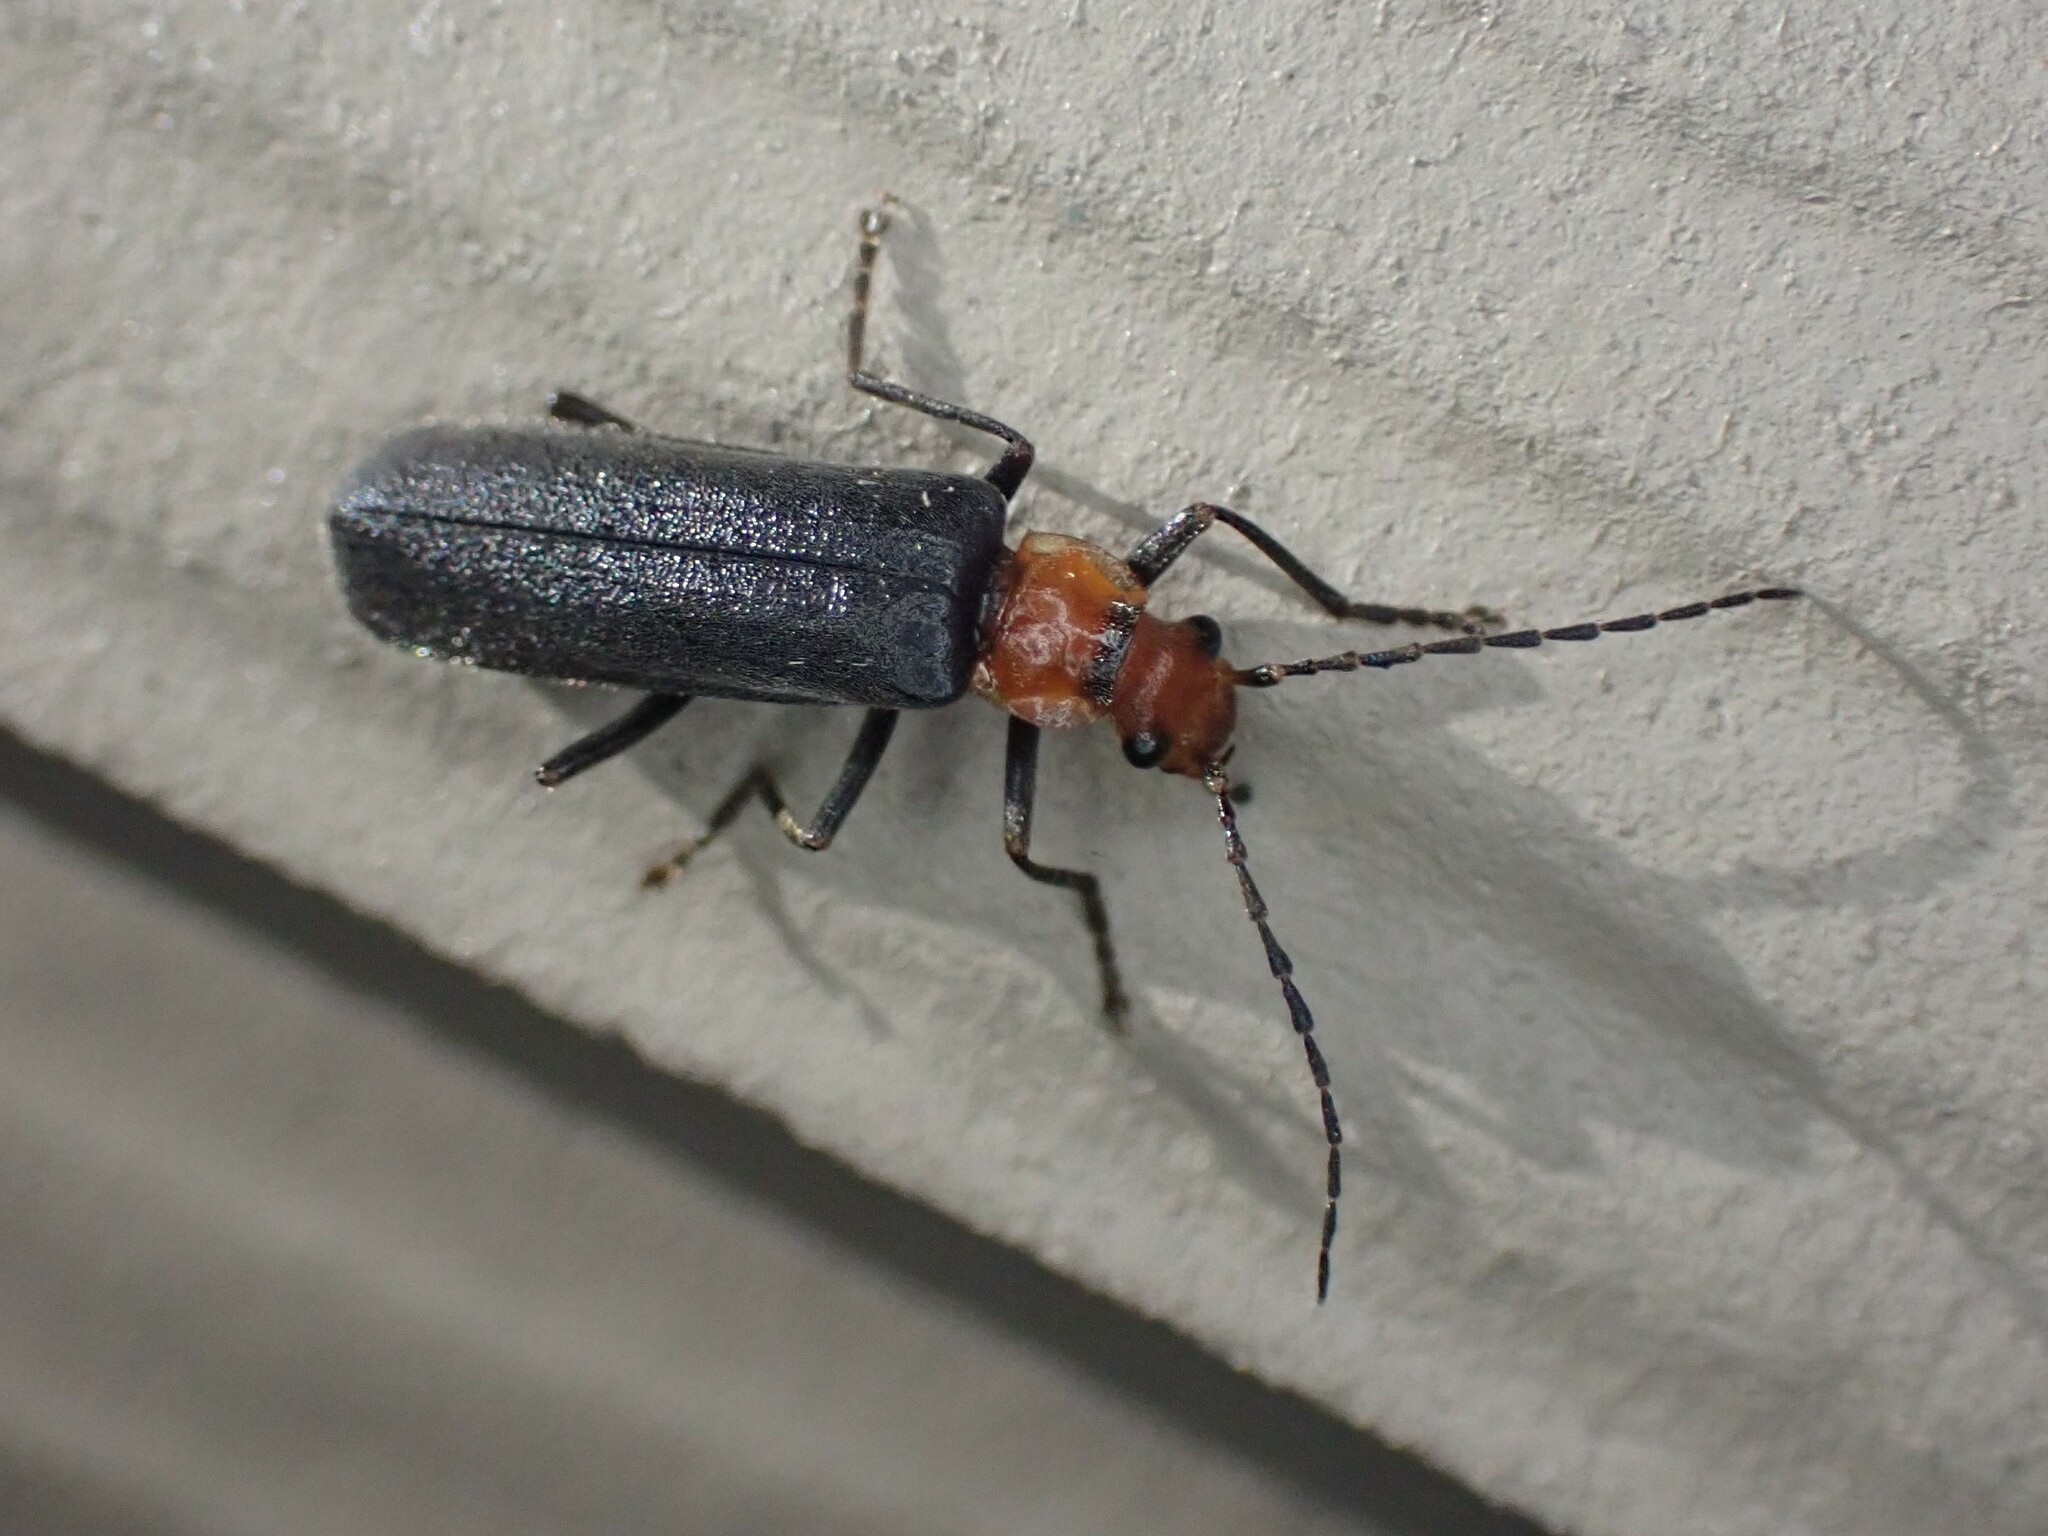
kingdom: Animalia
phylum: Arthropoda
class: Insecta
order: Coleoptera
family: Cantharidae
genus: Podabrus
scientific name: Podabrus pruinosus
